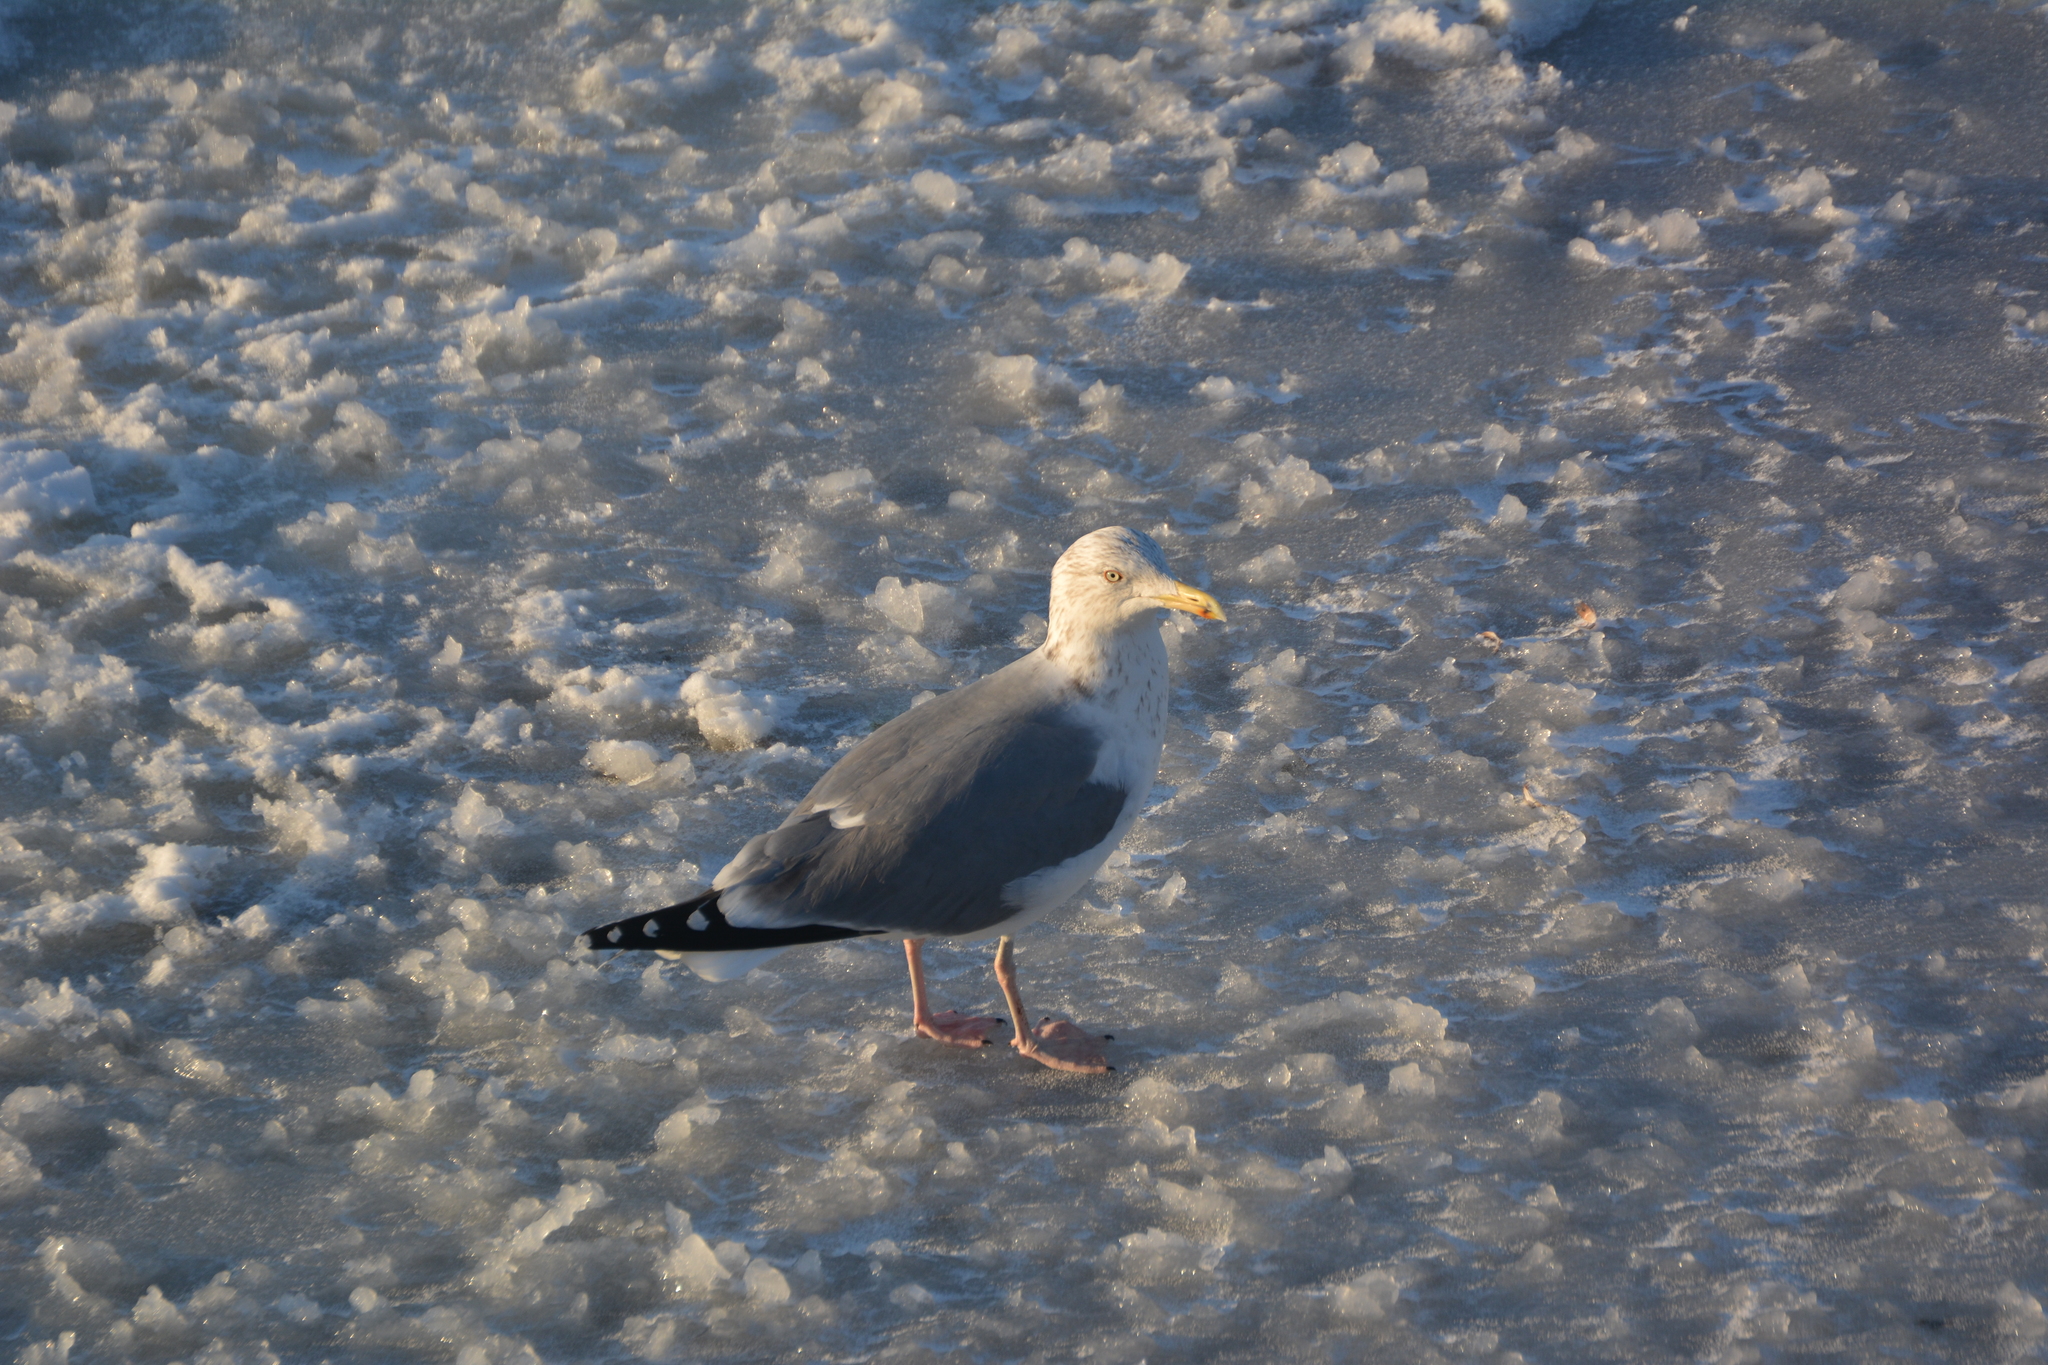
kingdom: Animalia
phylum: Chordata
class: Aves
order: Charadriiformes
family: Laridae
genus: Larus
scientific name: Larus argentatus
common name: Herring gull
